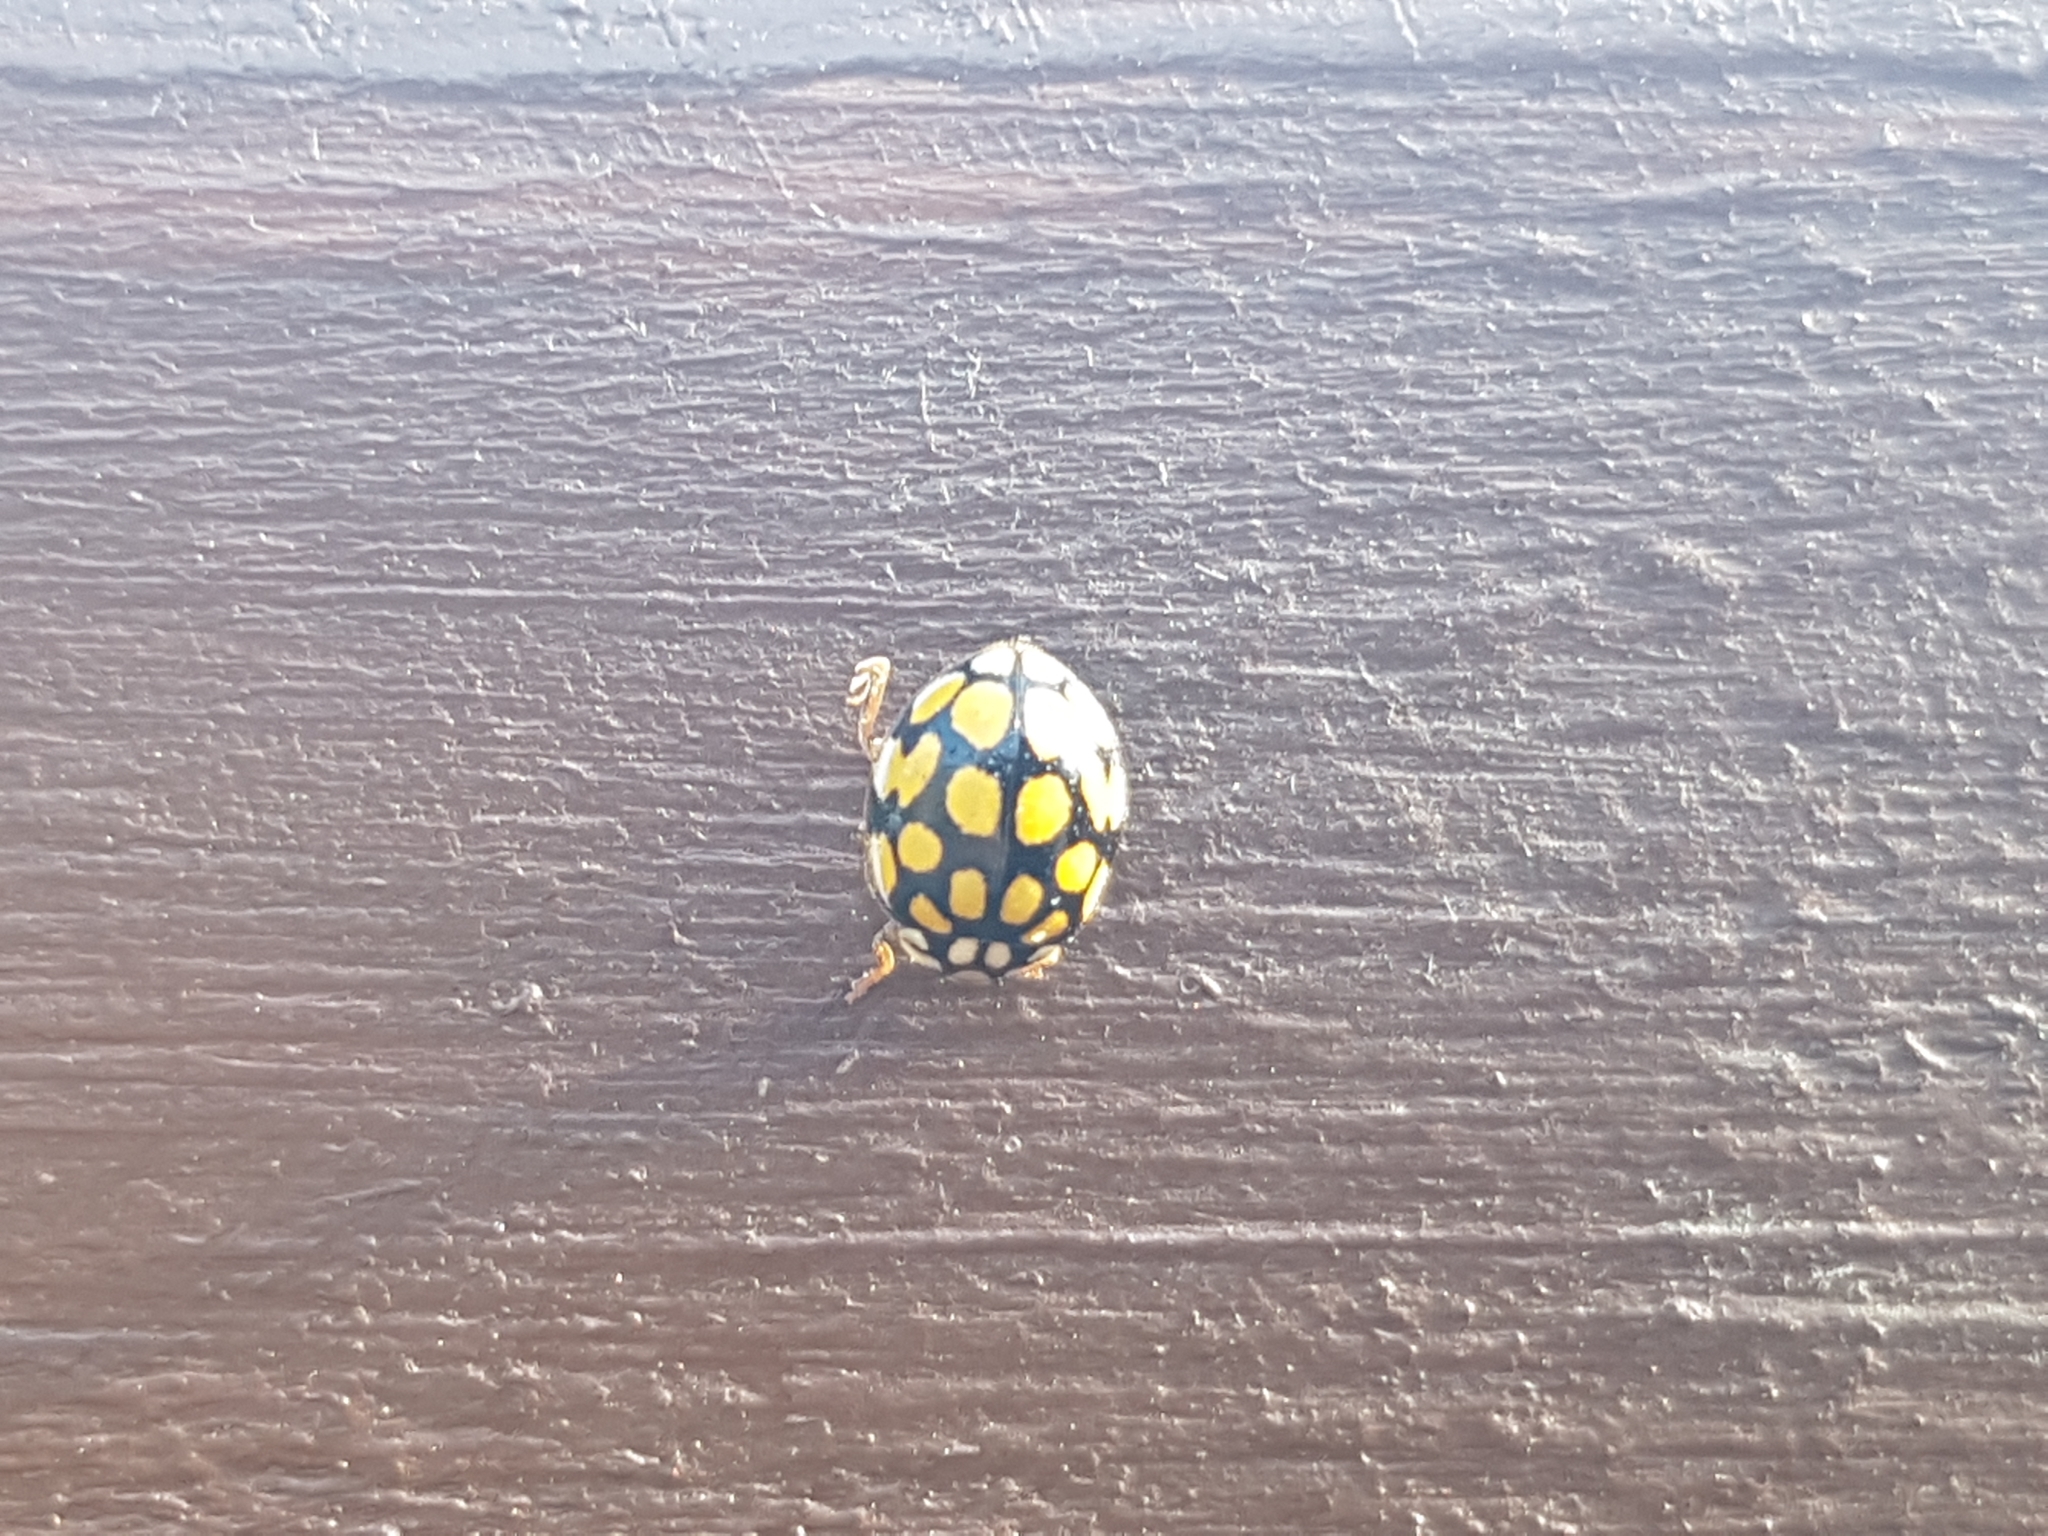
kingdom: Animalia
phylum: Arthropoda
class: Insecta
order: Coleoptera
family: Coccinellidae
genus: Sospita
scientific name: Sospita vigintiguttata
